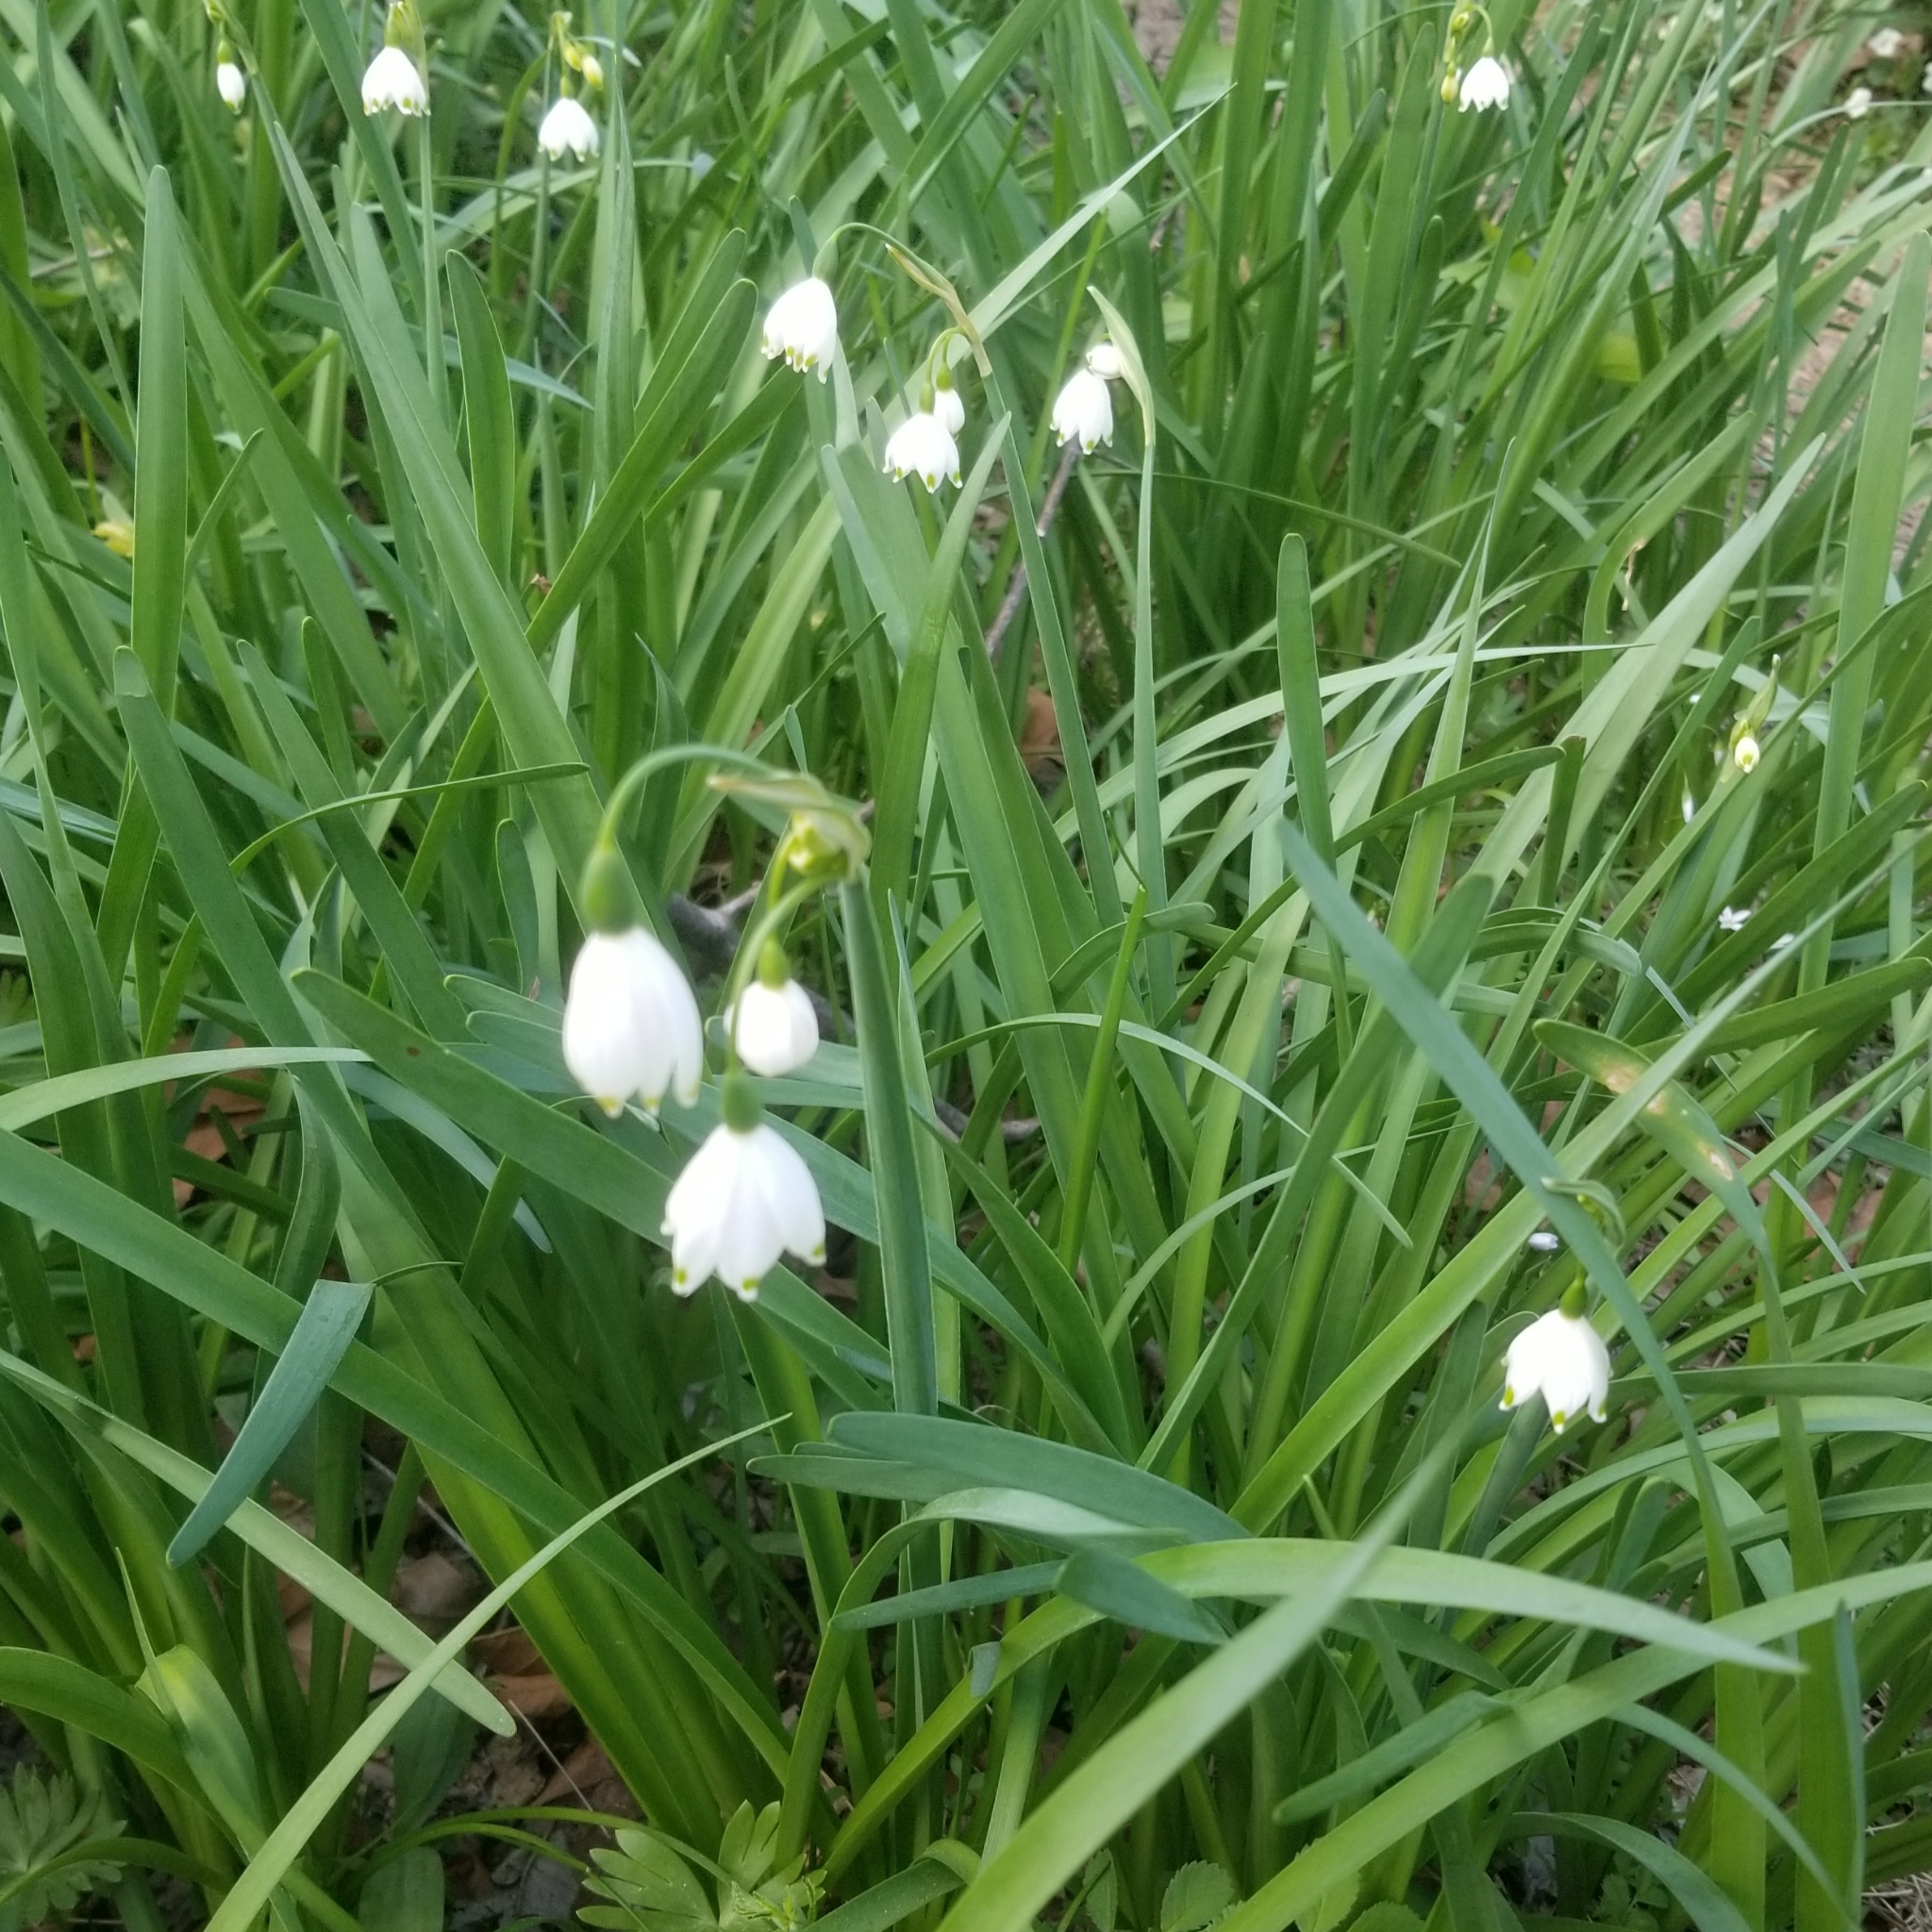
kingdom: Plantae
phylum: Tracheophyta
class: Liliopsida
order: Asparagales
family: Amaryllidaceae
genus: Leucojum
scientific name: Leucojum aestivum
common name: Summer snowflake
